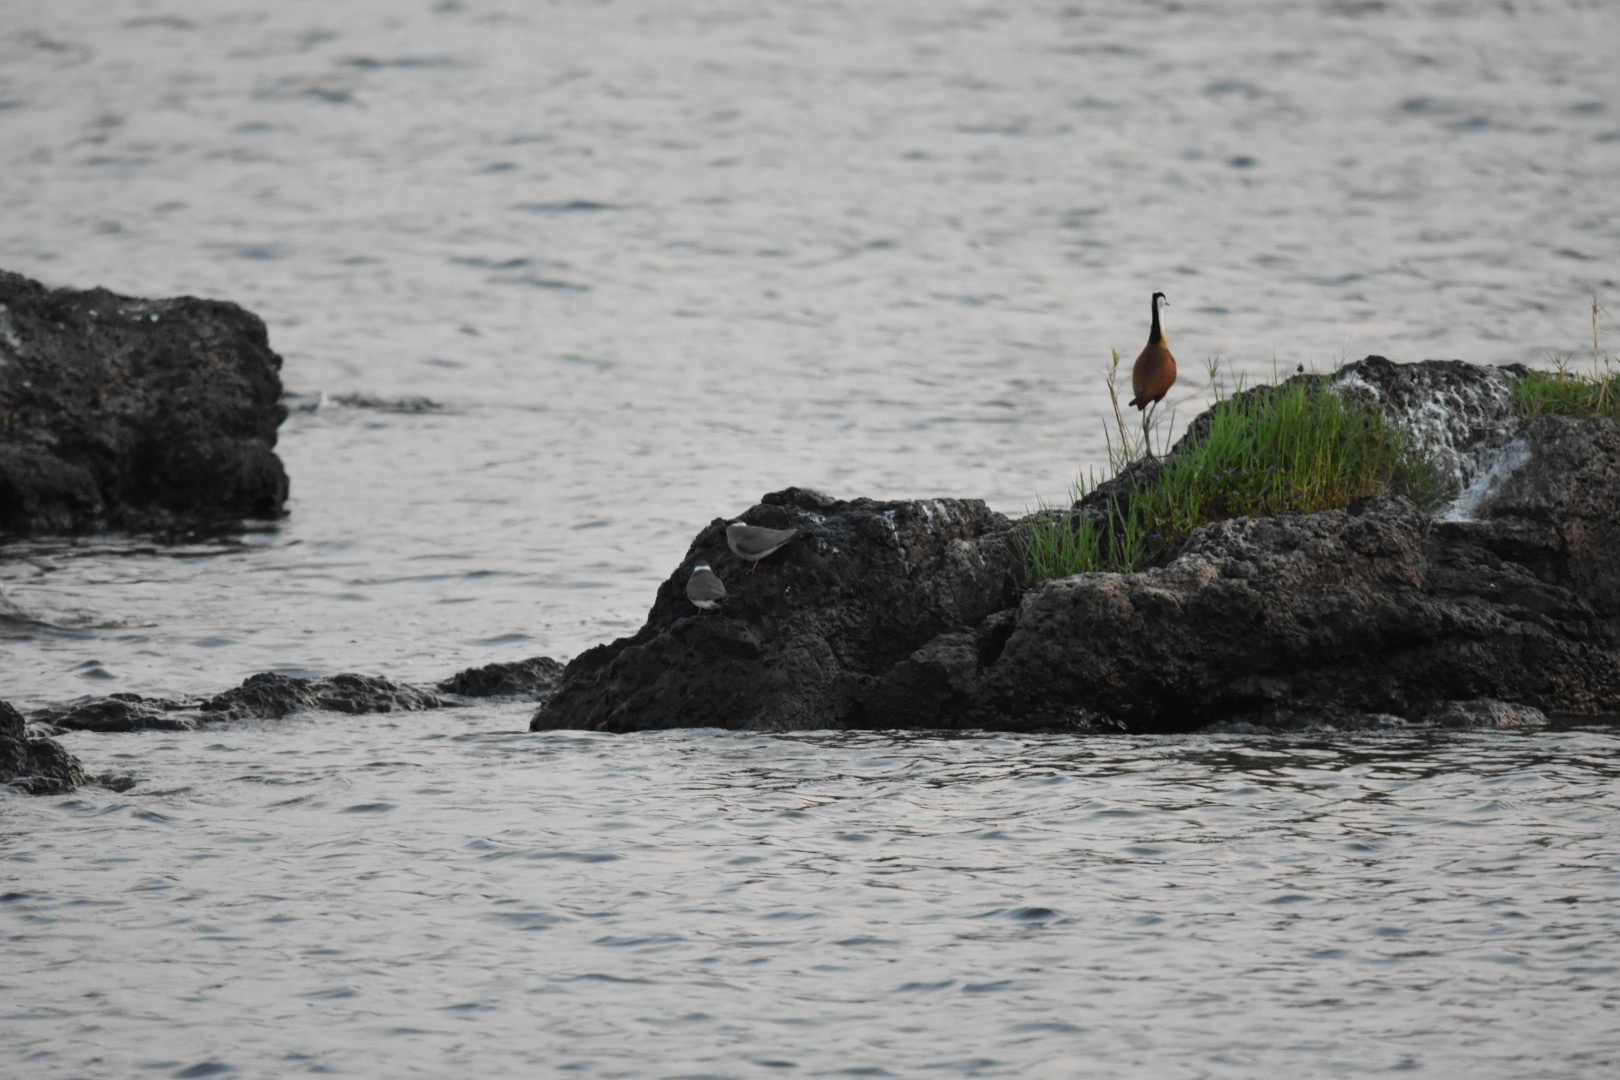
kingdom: Animalia
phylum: Chordata
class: Aves
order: Charadriiformes
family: Jacanidae
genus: Actophilornis
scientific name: Actophilornis africanus
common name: African jacana
